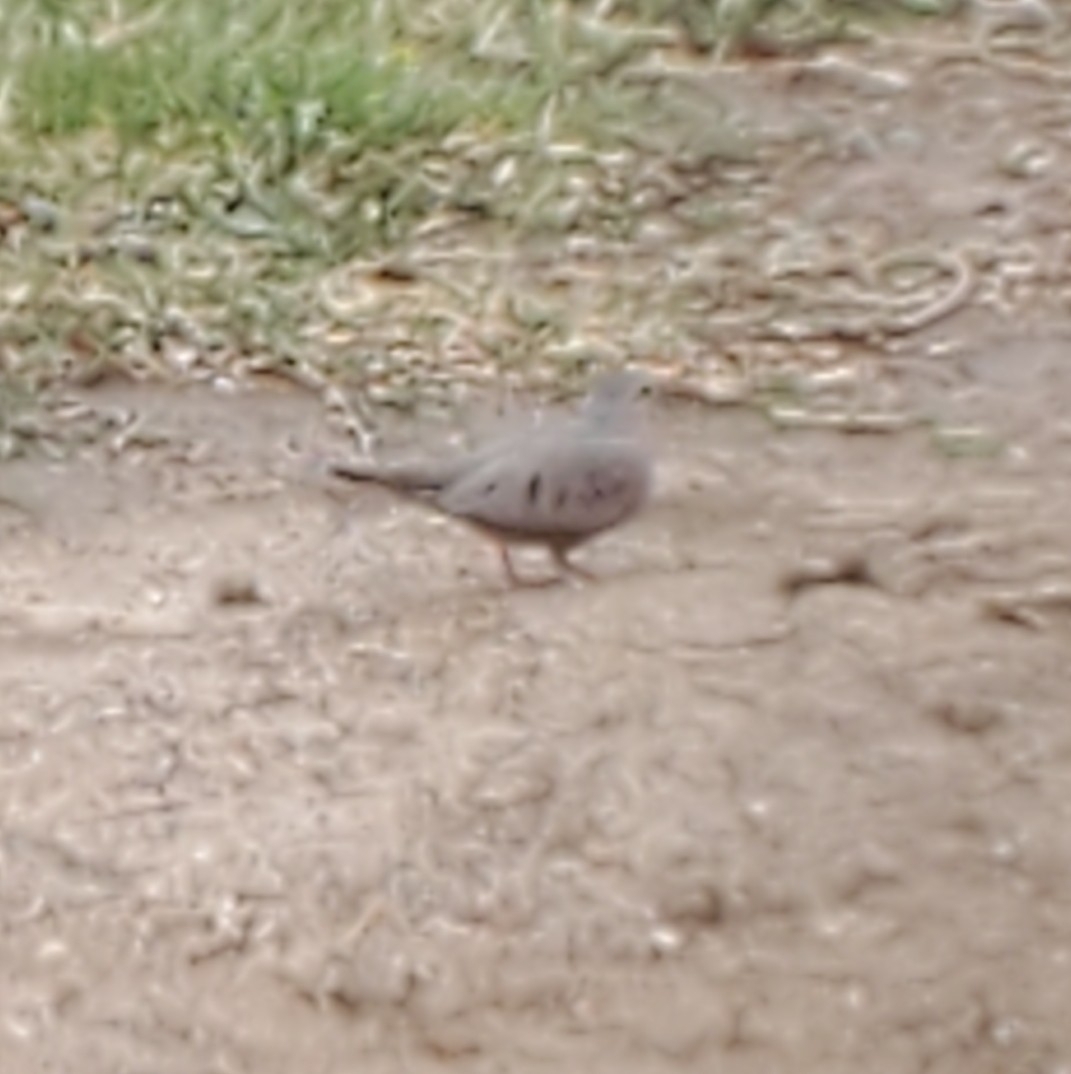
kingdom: Animalia
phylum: Chordata
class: Aves
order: Columbiformes
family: Columbidae
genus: Columbina
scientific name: Columbina passerina
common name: Common ground-dove
